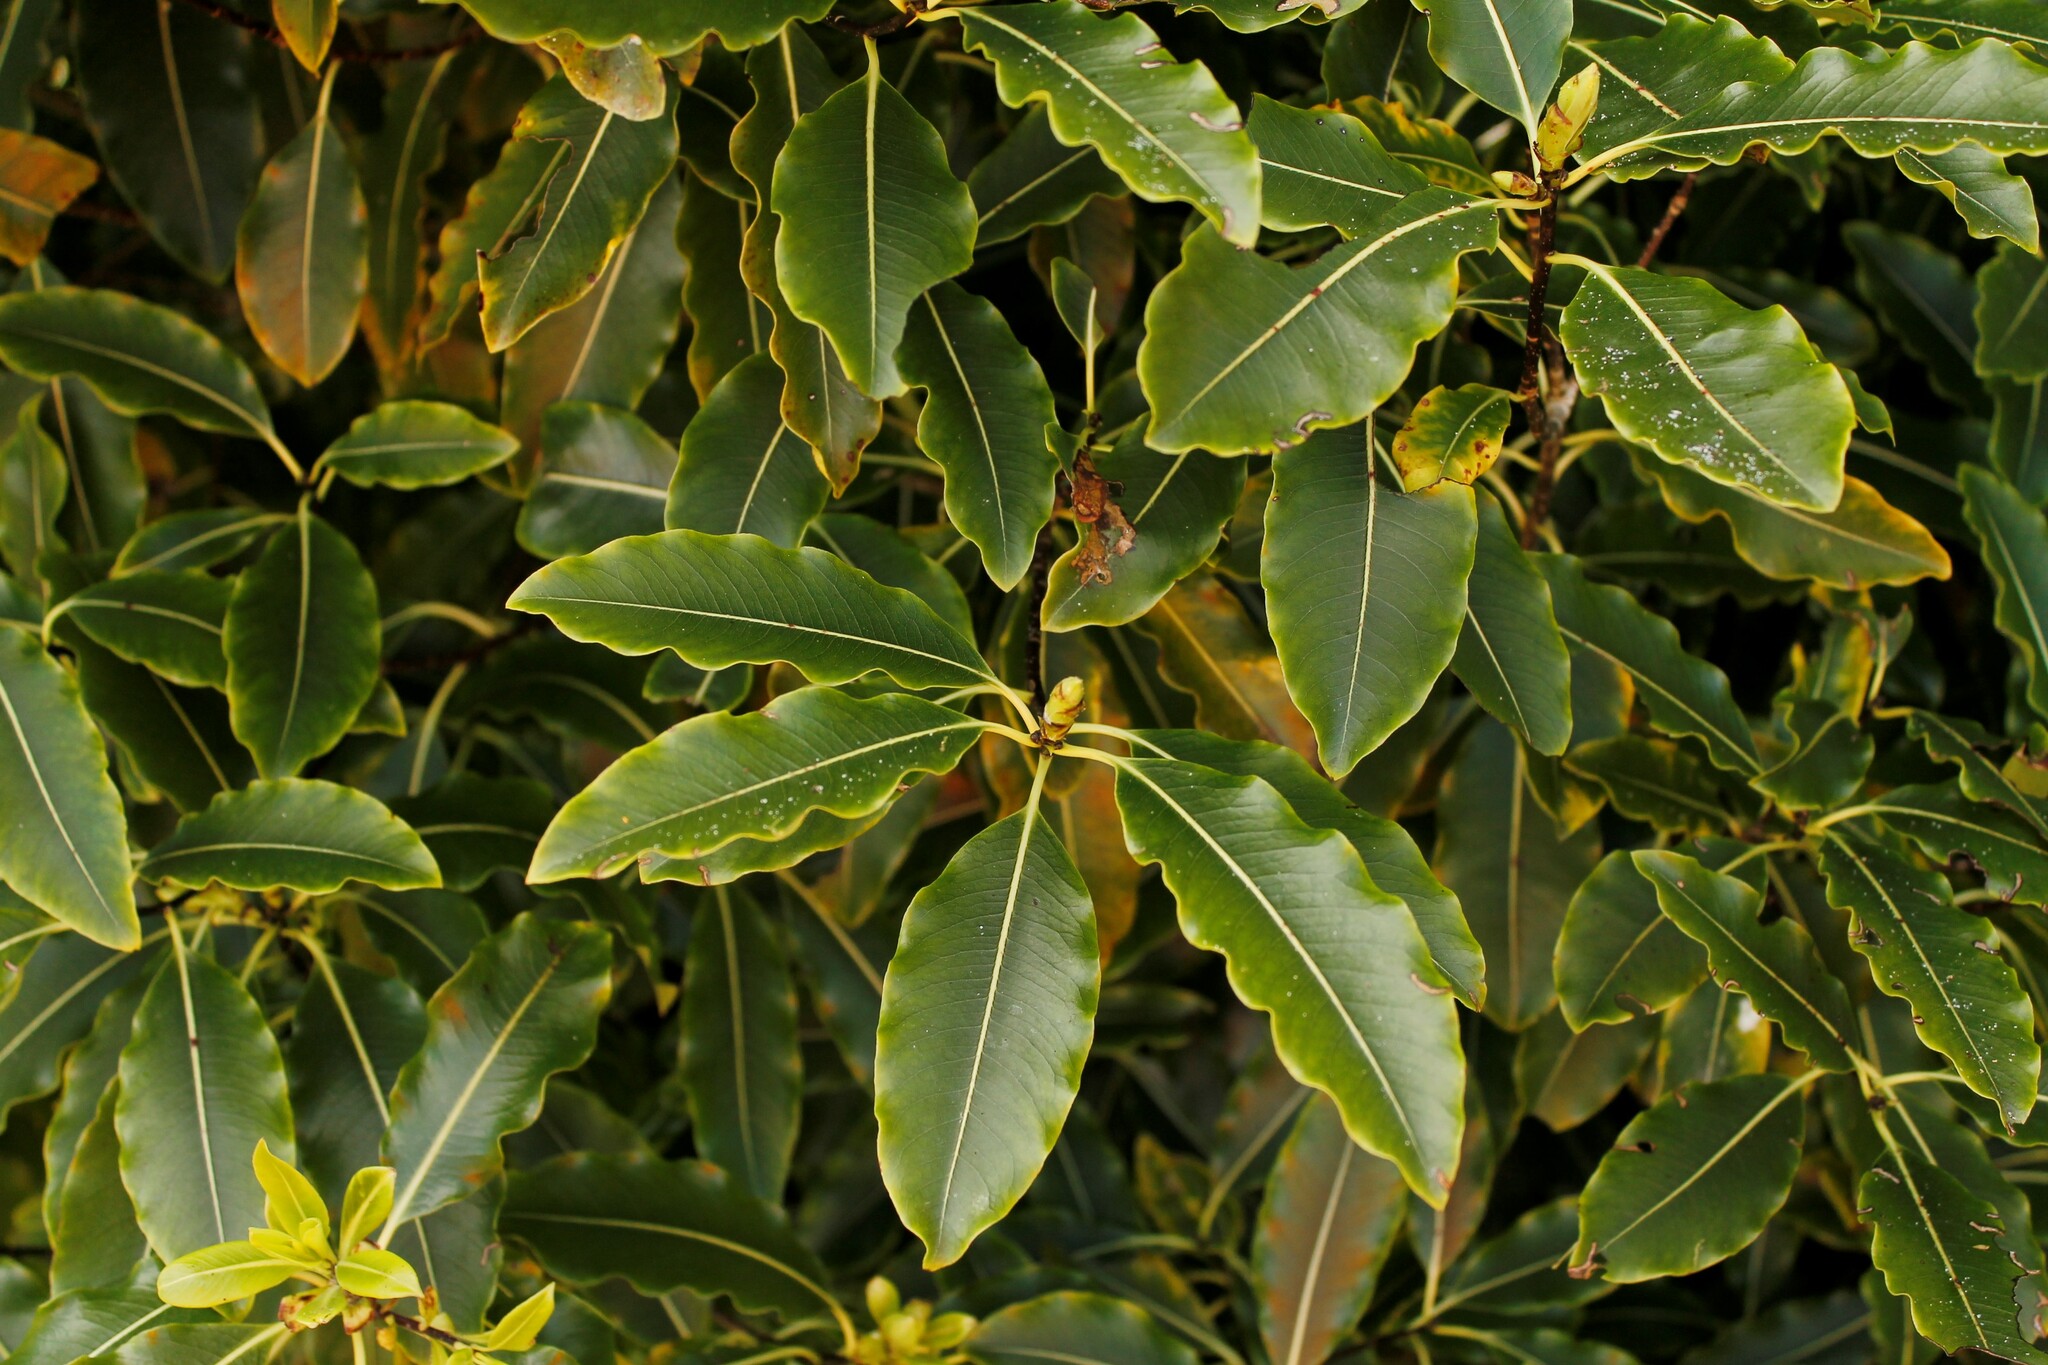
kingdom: Plantae
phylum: Tracheophyta
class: Magnoliopsida
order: Apiales
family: Pittosporaceae
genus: Pittosporum
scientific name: Pittosporum eugenioides
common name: Lemonwood
